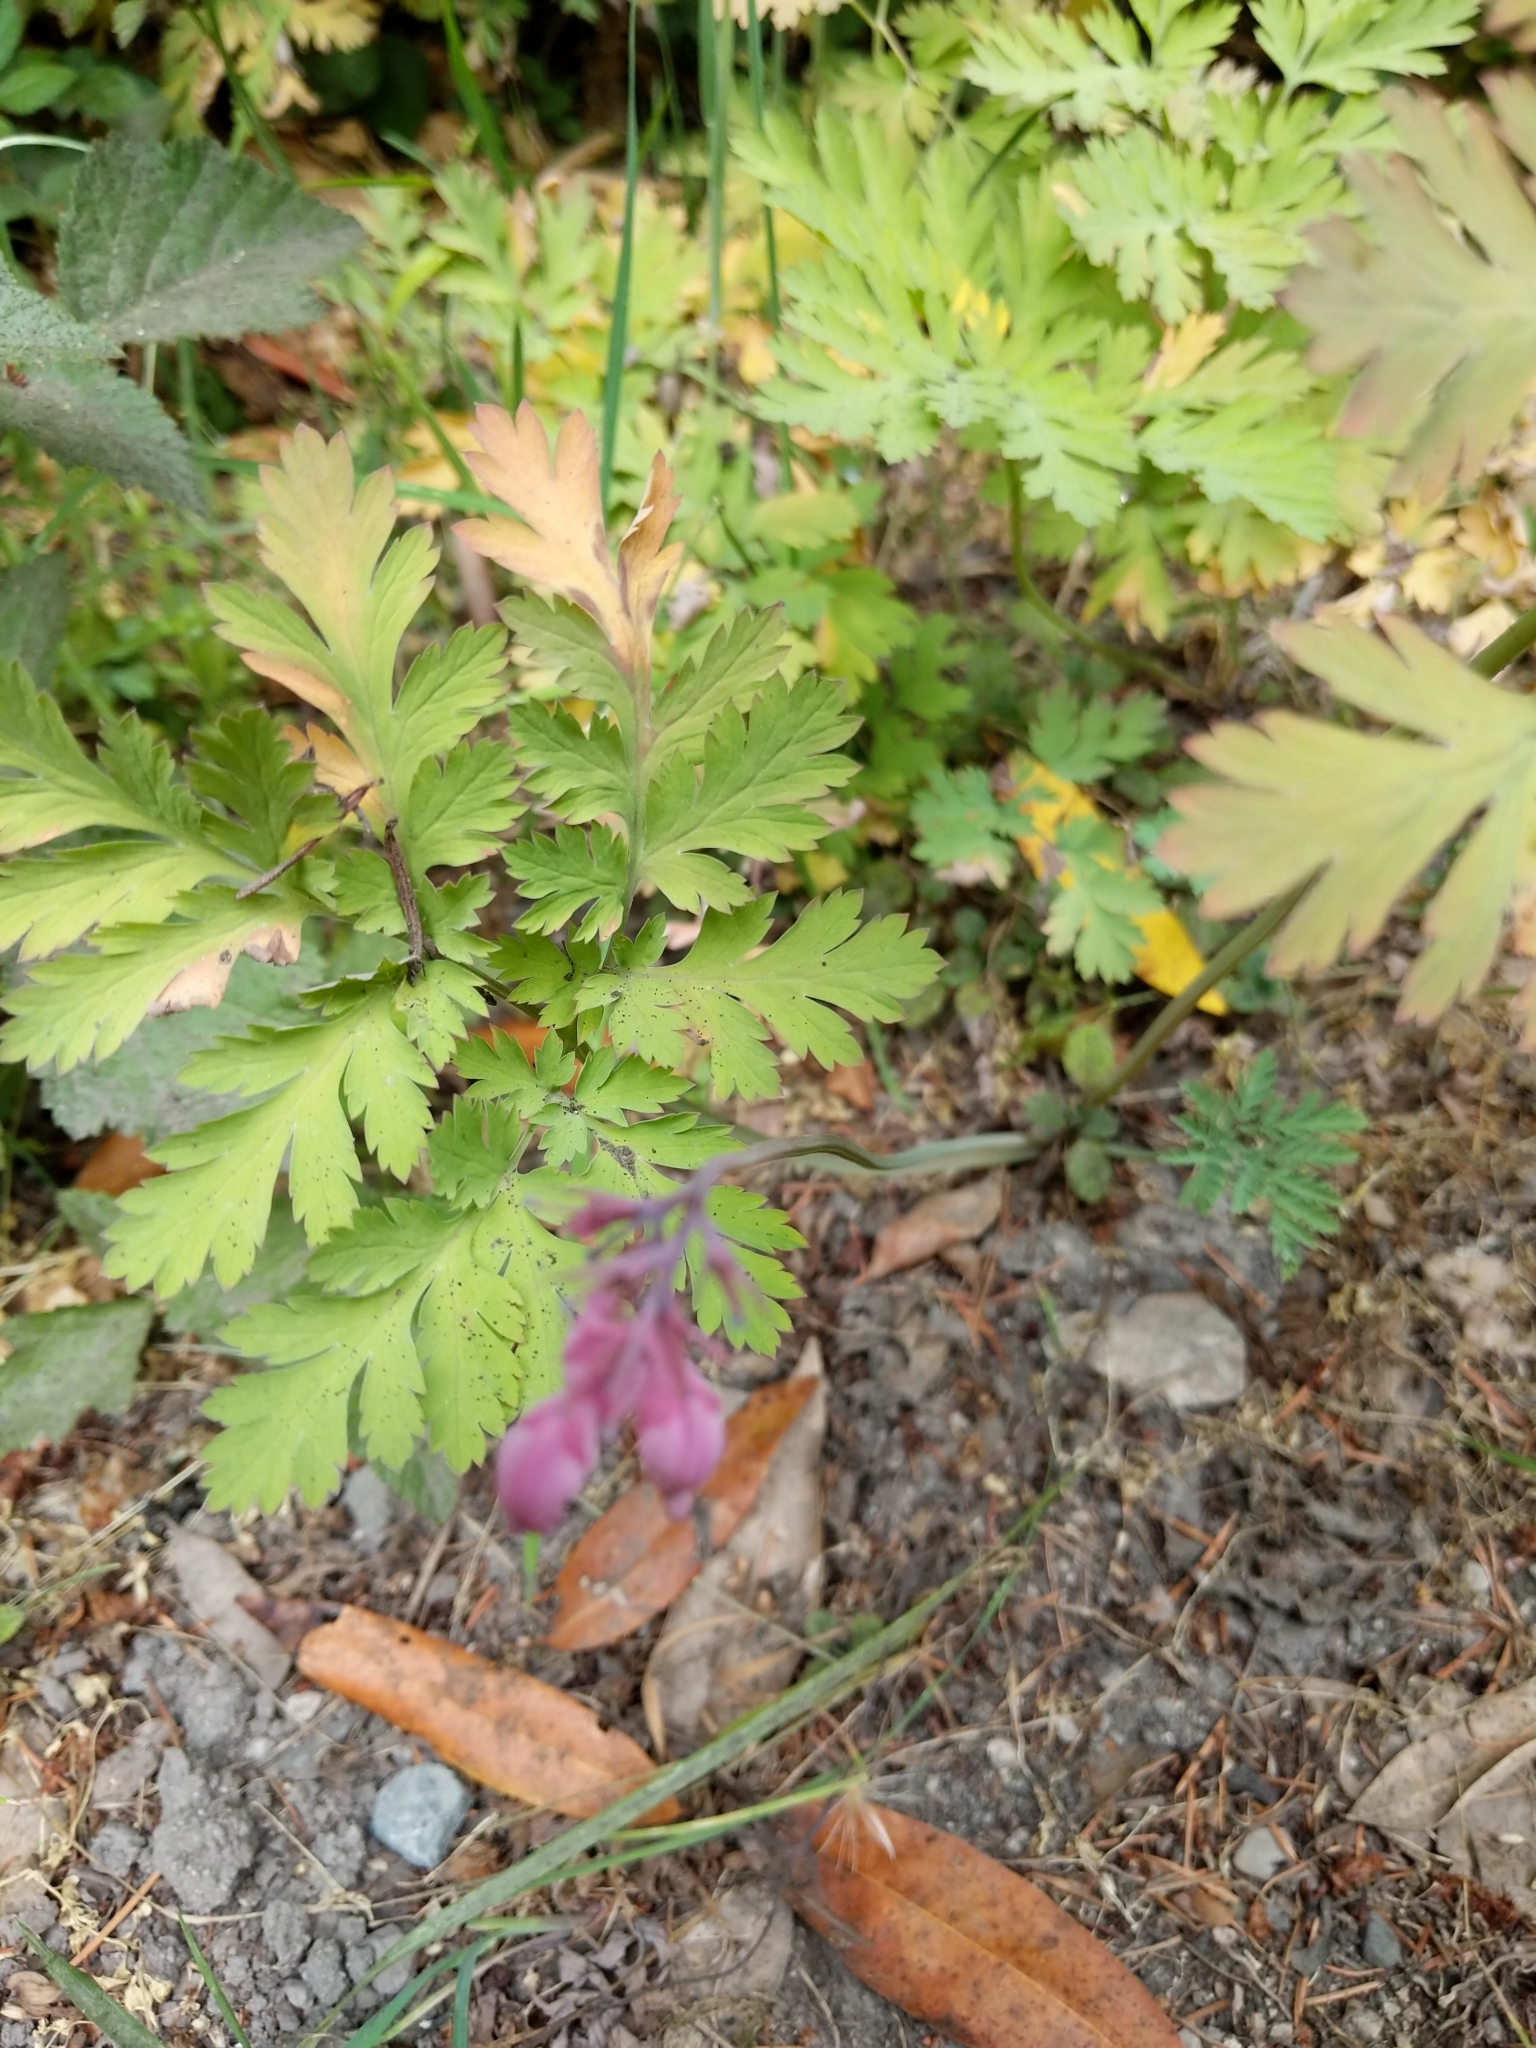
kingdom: Plantae
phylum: Tracheophyta
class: Magnoliopsida
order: Ranunculales
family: Papaveraceae
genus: Dicentra
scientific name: Dicentra formosa
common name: Bleeding-heart
